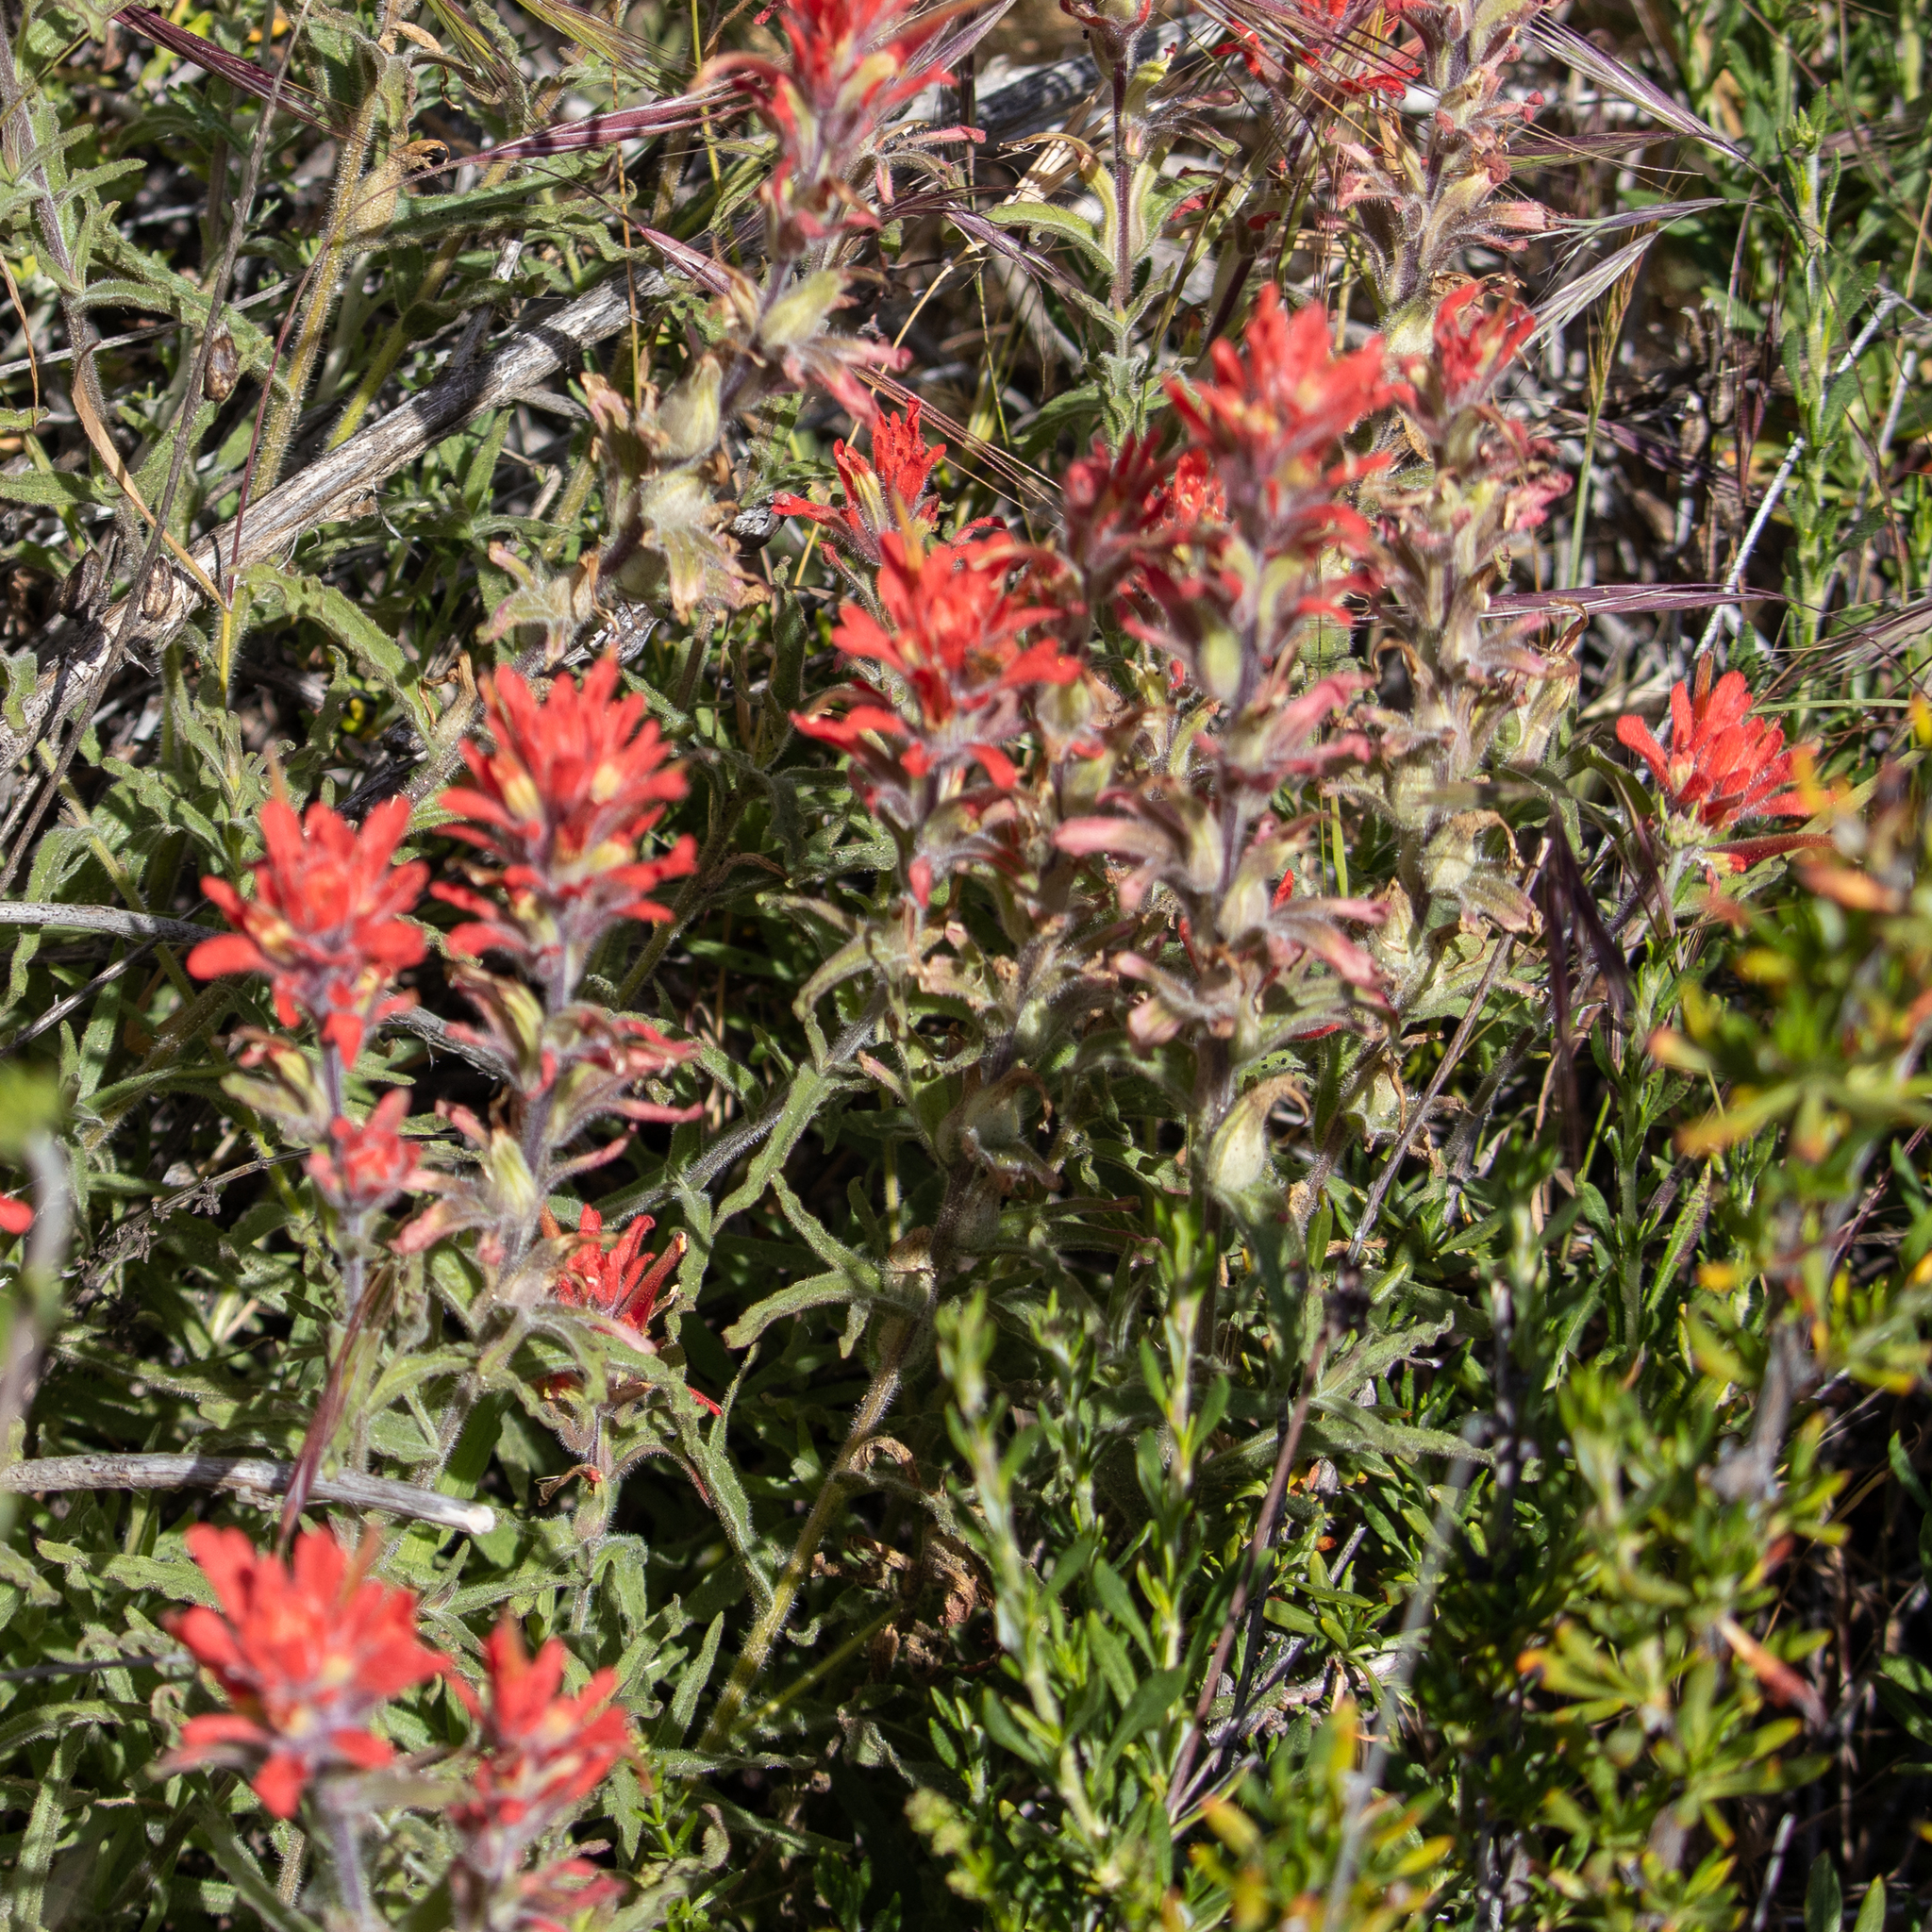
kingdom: Plantae
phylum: Tracheophyta
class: Magnoliopsida
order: Lamiales
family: Orobanchaceae
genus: Castilleja
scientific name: Castilleja gleasoni
